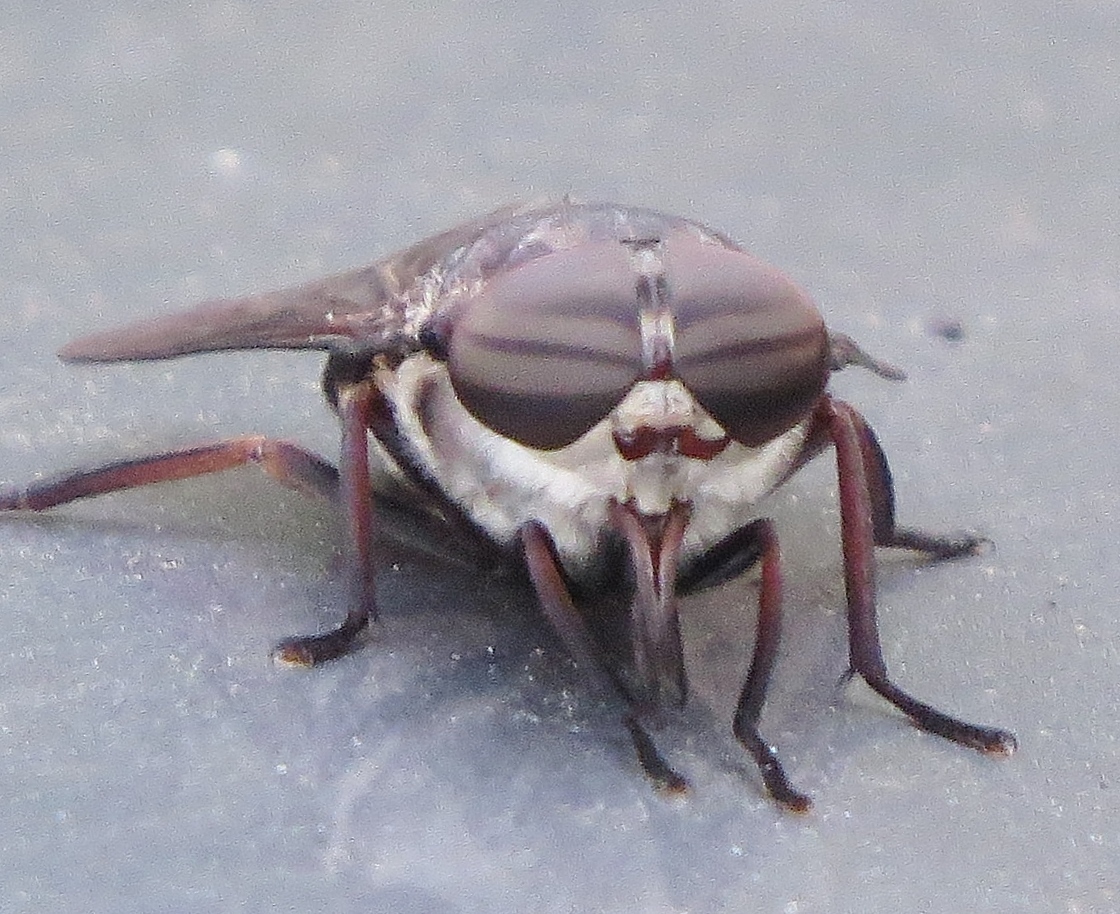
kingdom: Animalia
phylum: Arthropoda
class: Insecta
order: Diptera
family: Tabanidae
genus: Tabanus
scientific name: Tabanus gladiator
